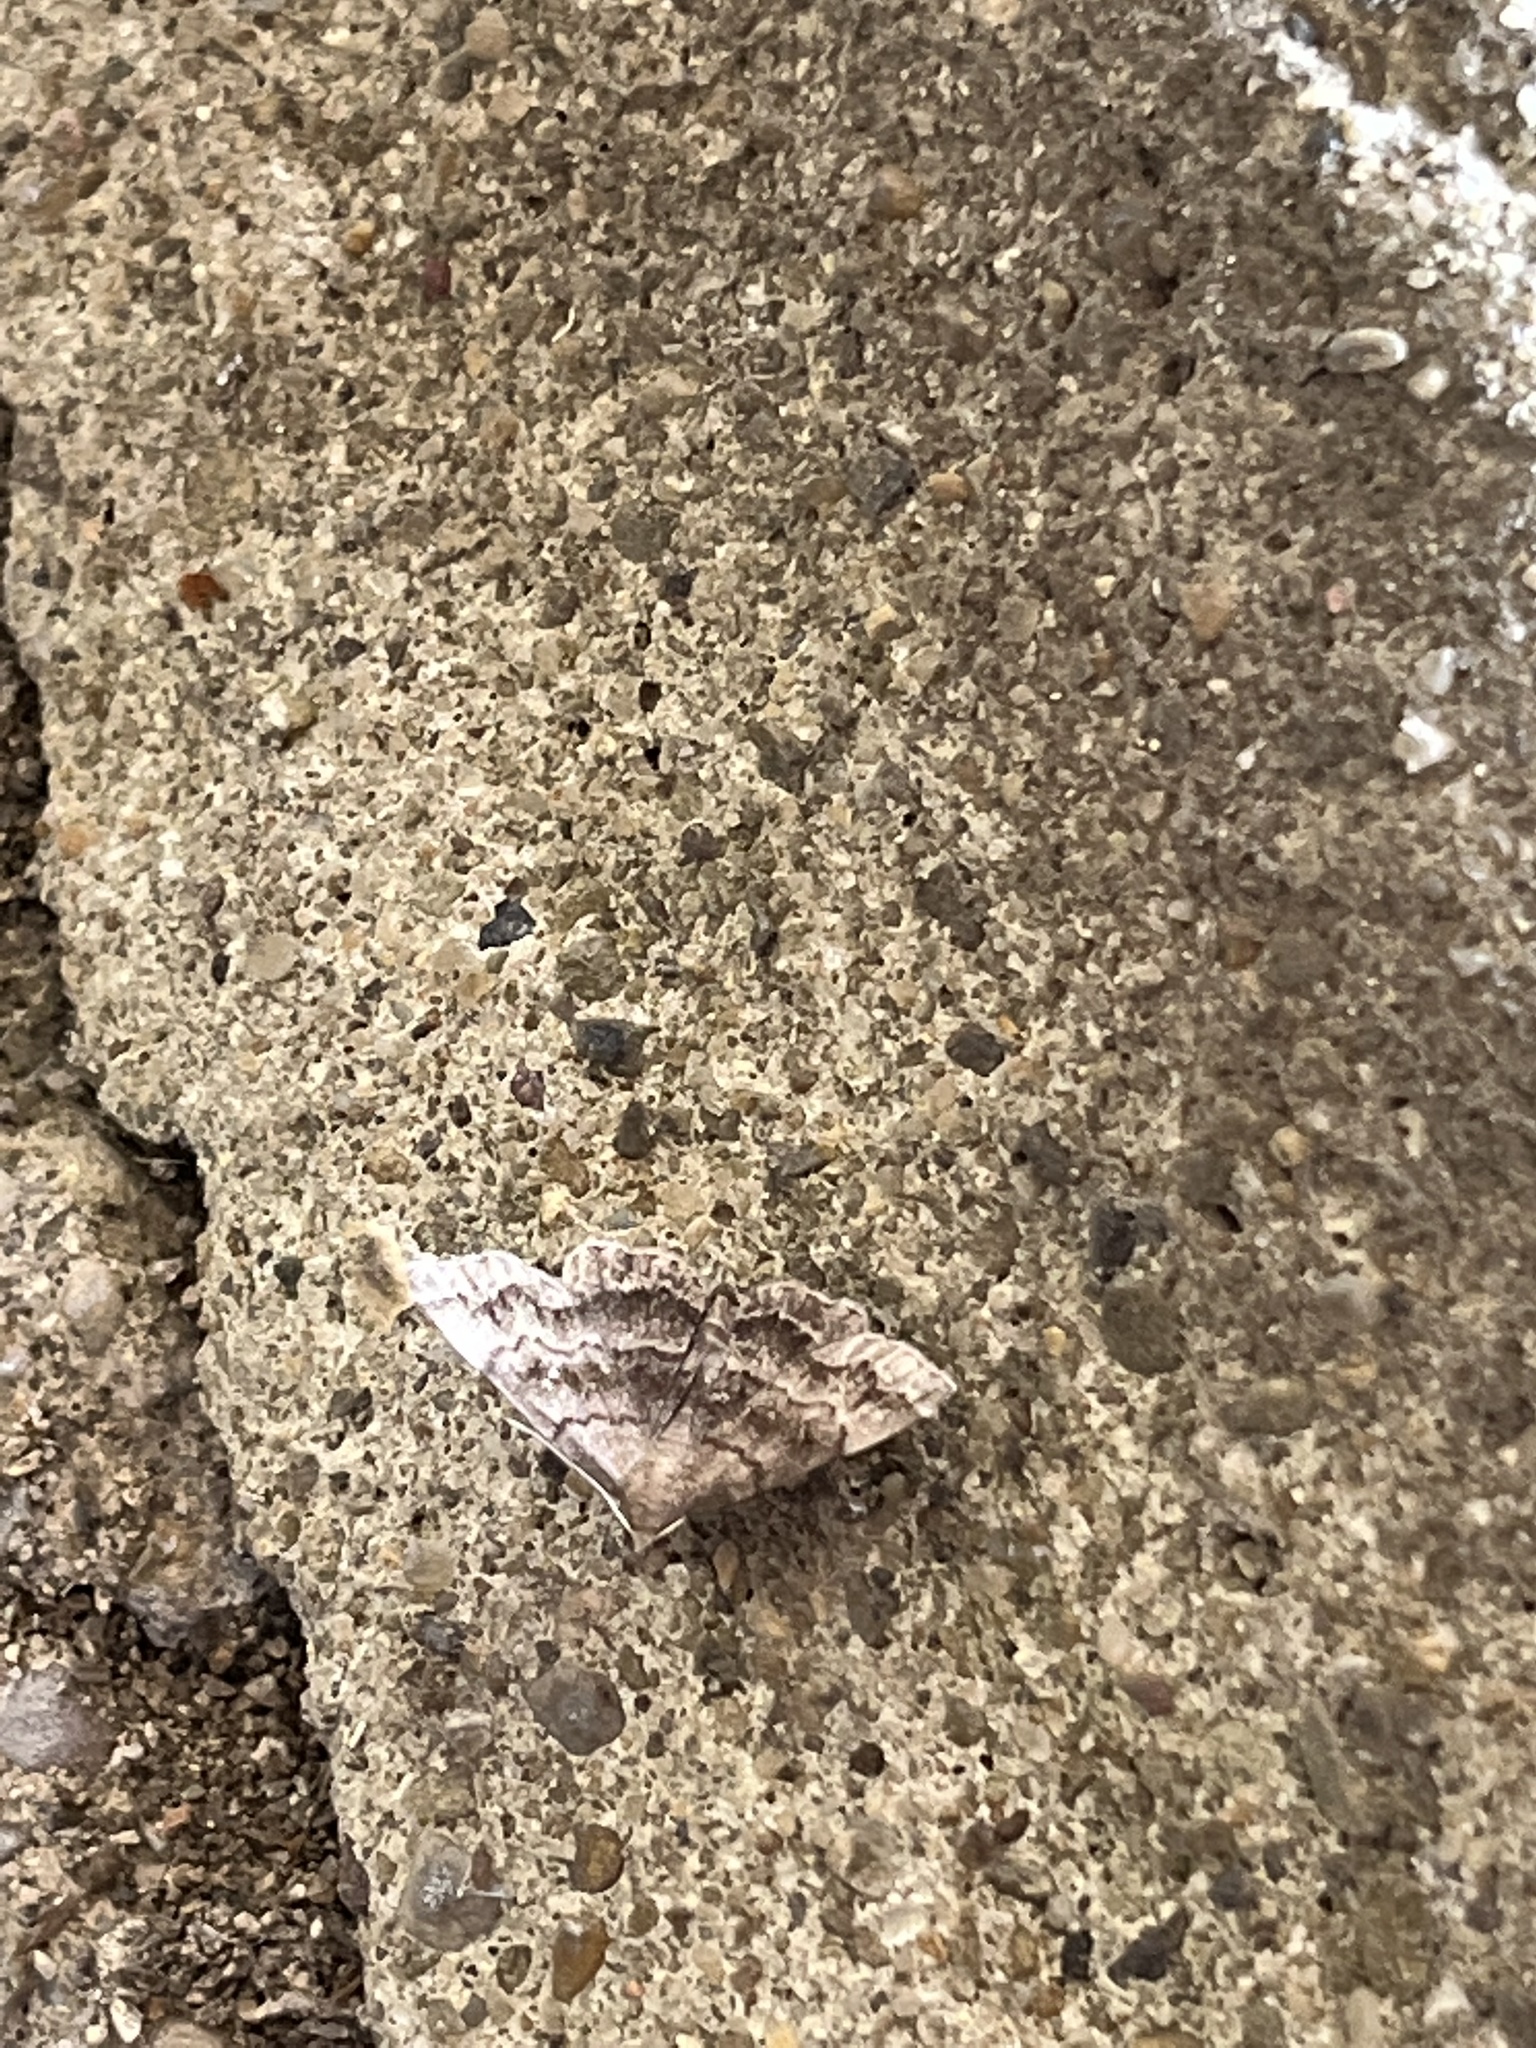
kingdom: Animalia
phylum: Arthropoda
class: Insecta
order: Lepidoptera
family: Erebidae
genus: Phalaenostola
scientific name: Phalaenostola larentioides
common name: Black-banded owlet
